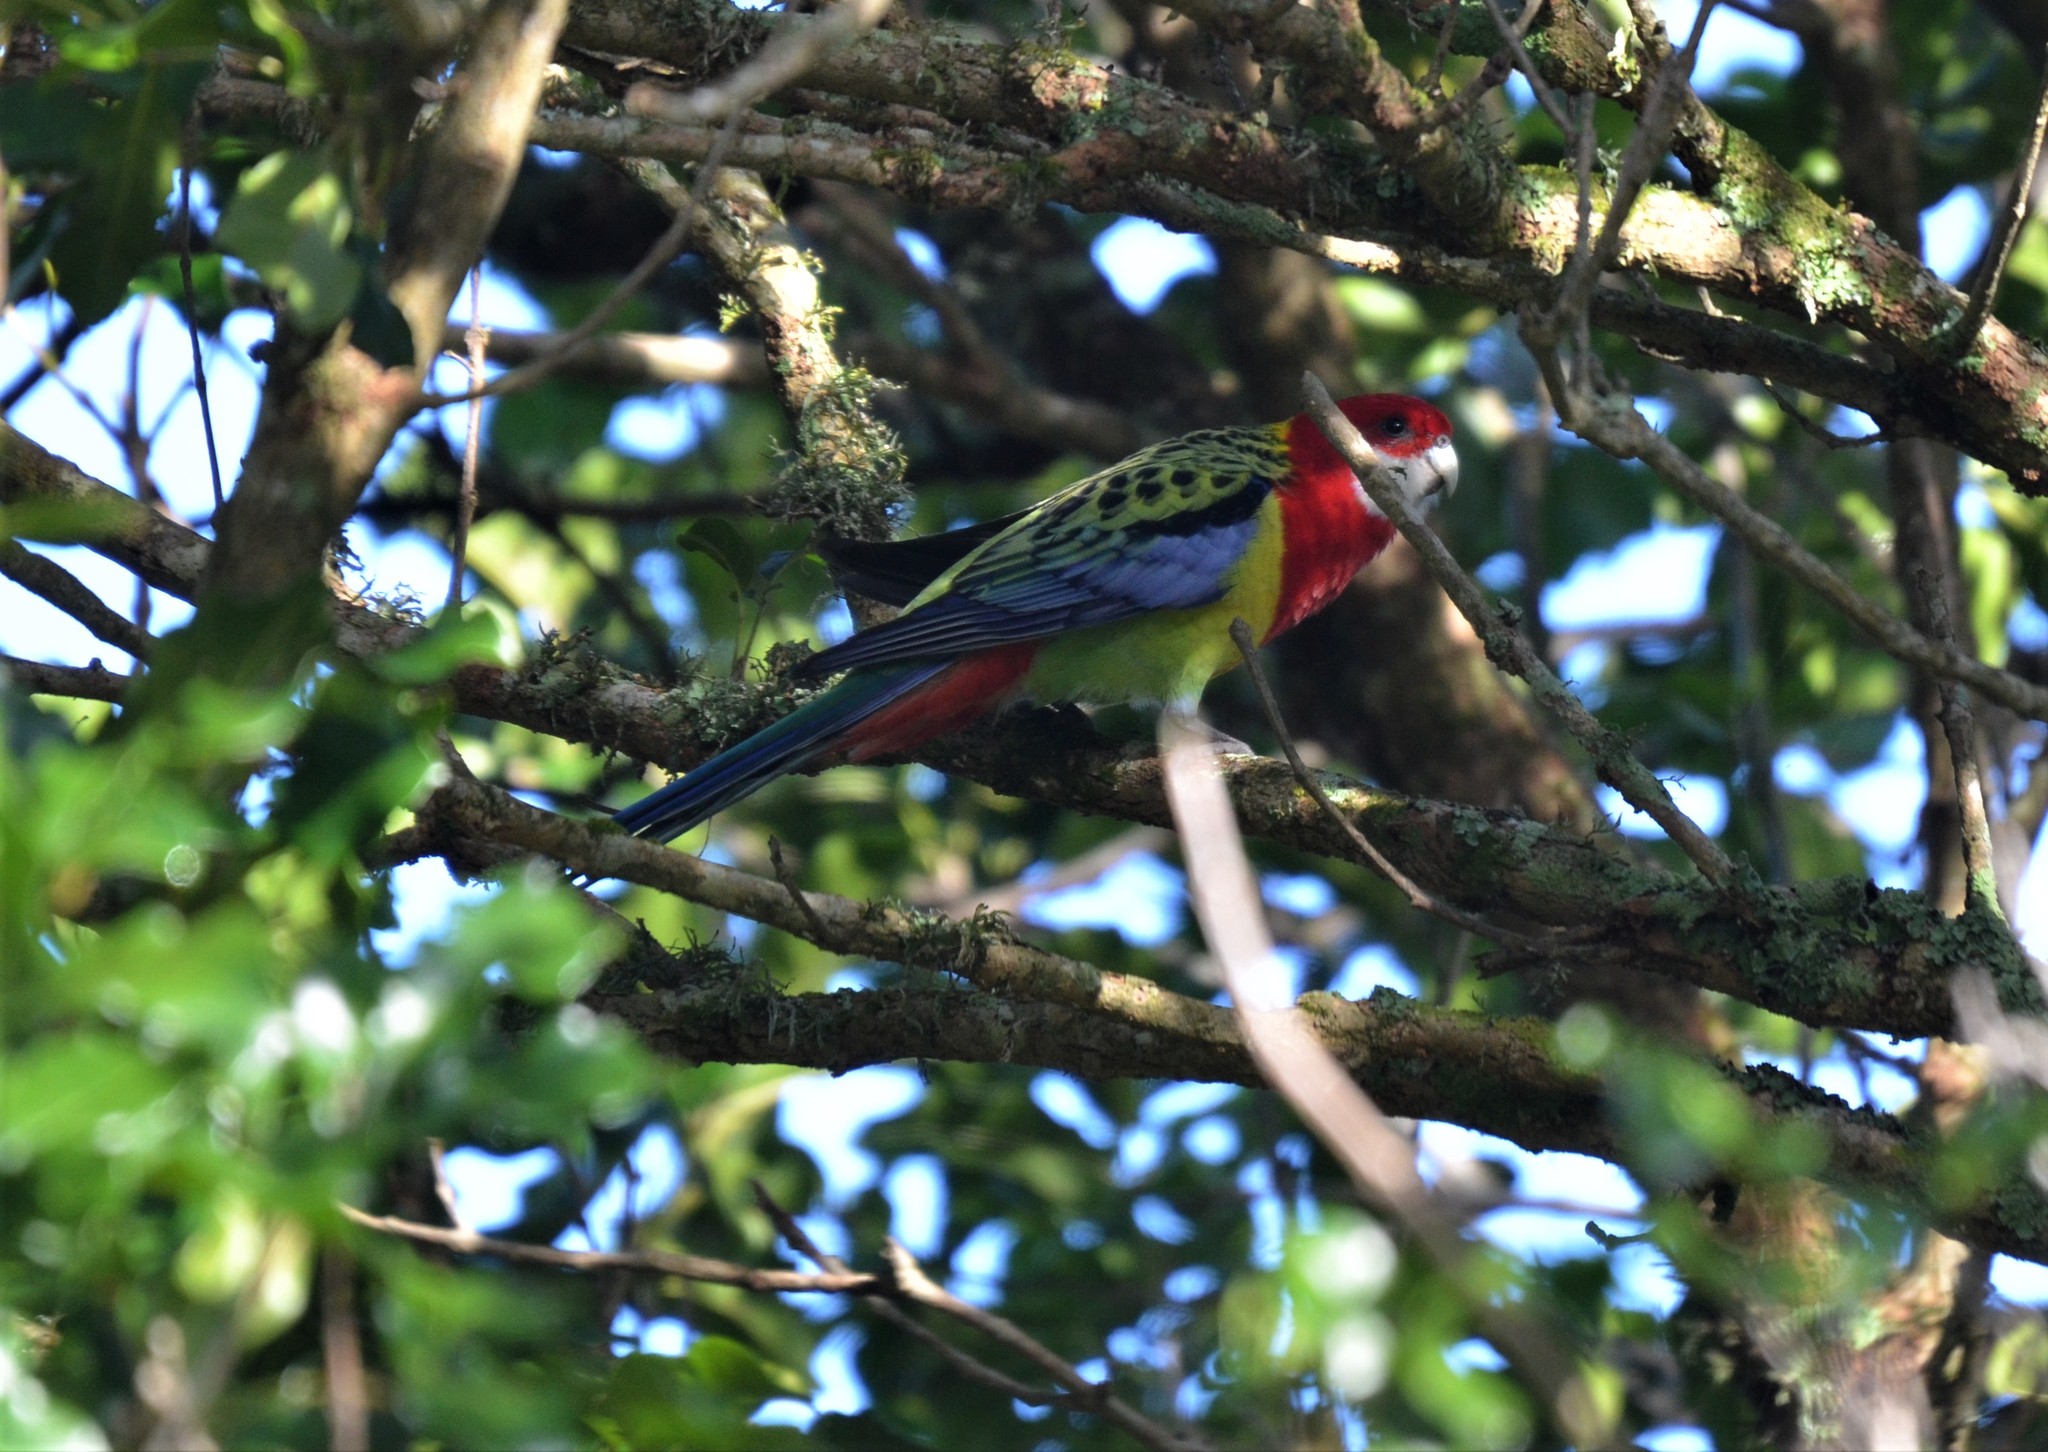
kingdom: Animalia
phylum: Chordata
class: Aves
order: Psittaciformes
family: Psittacidae
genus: Platycercus
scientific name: Platycercus eximius
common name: Eastern rosella
